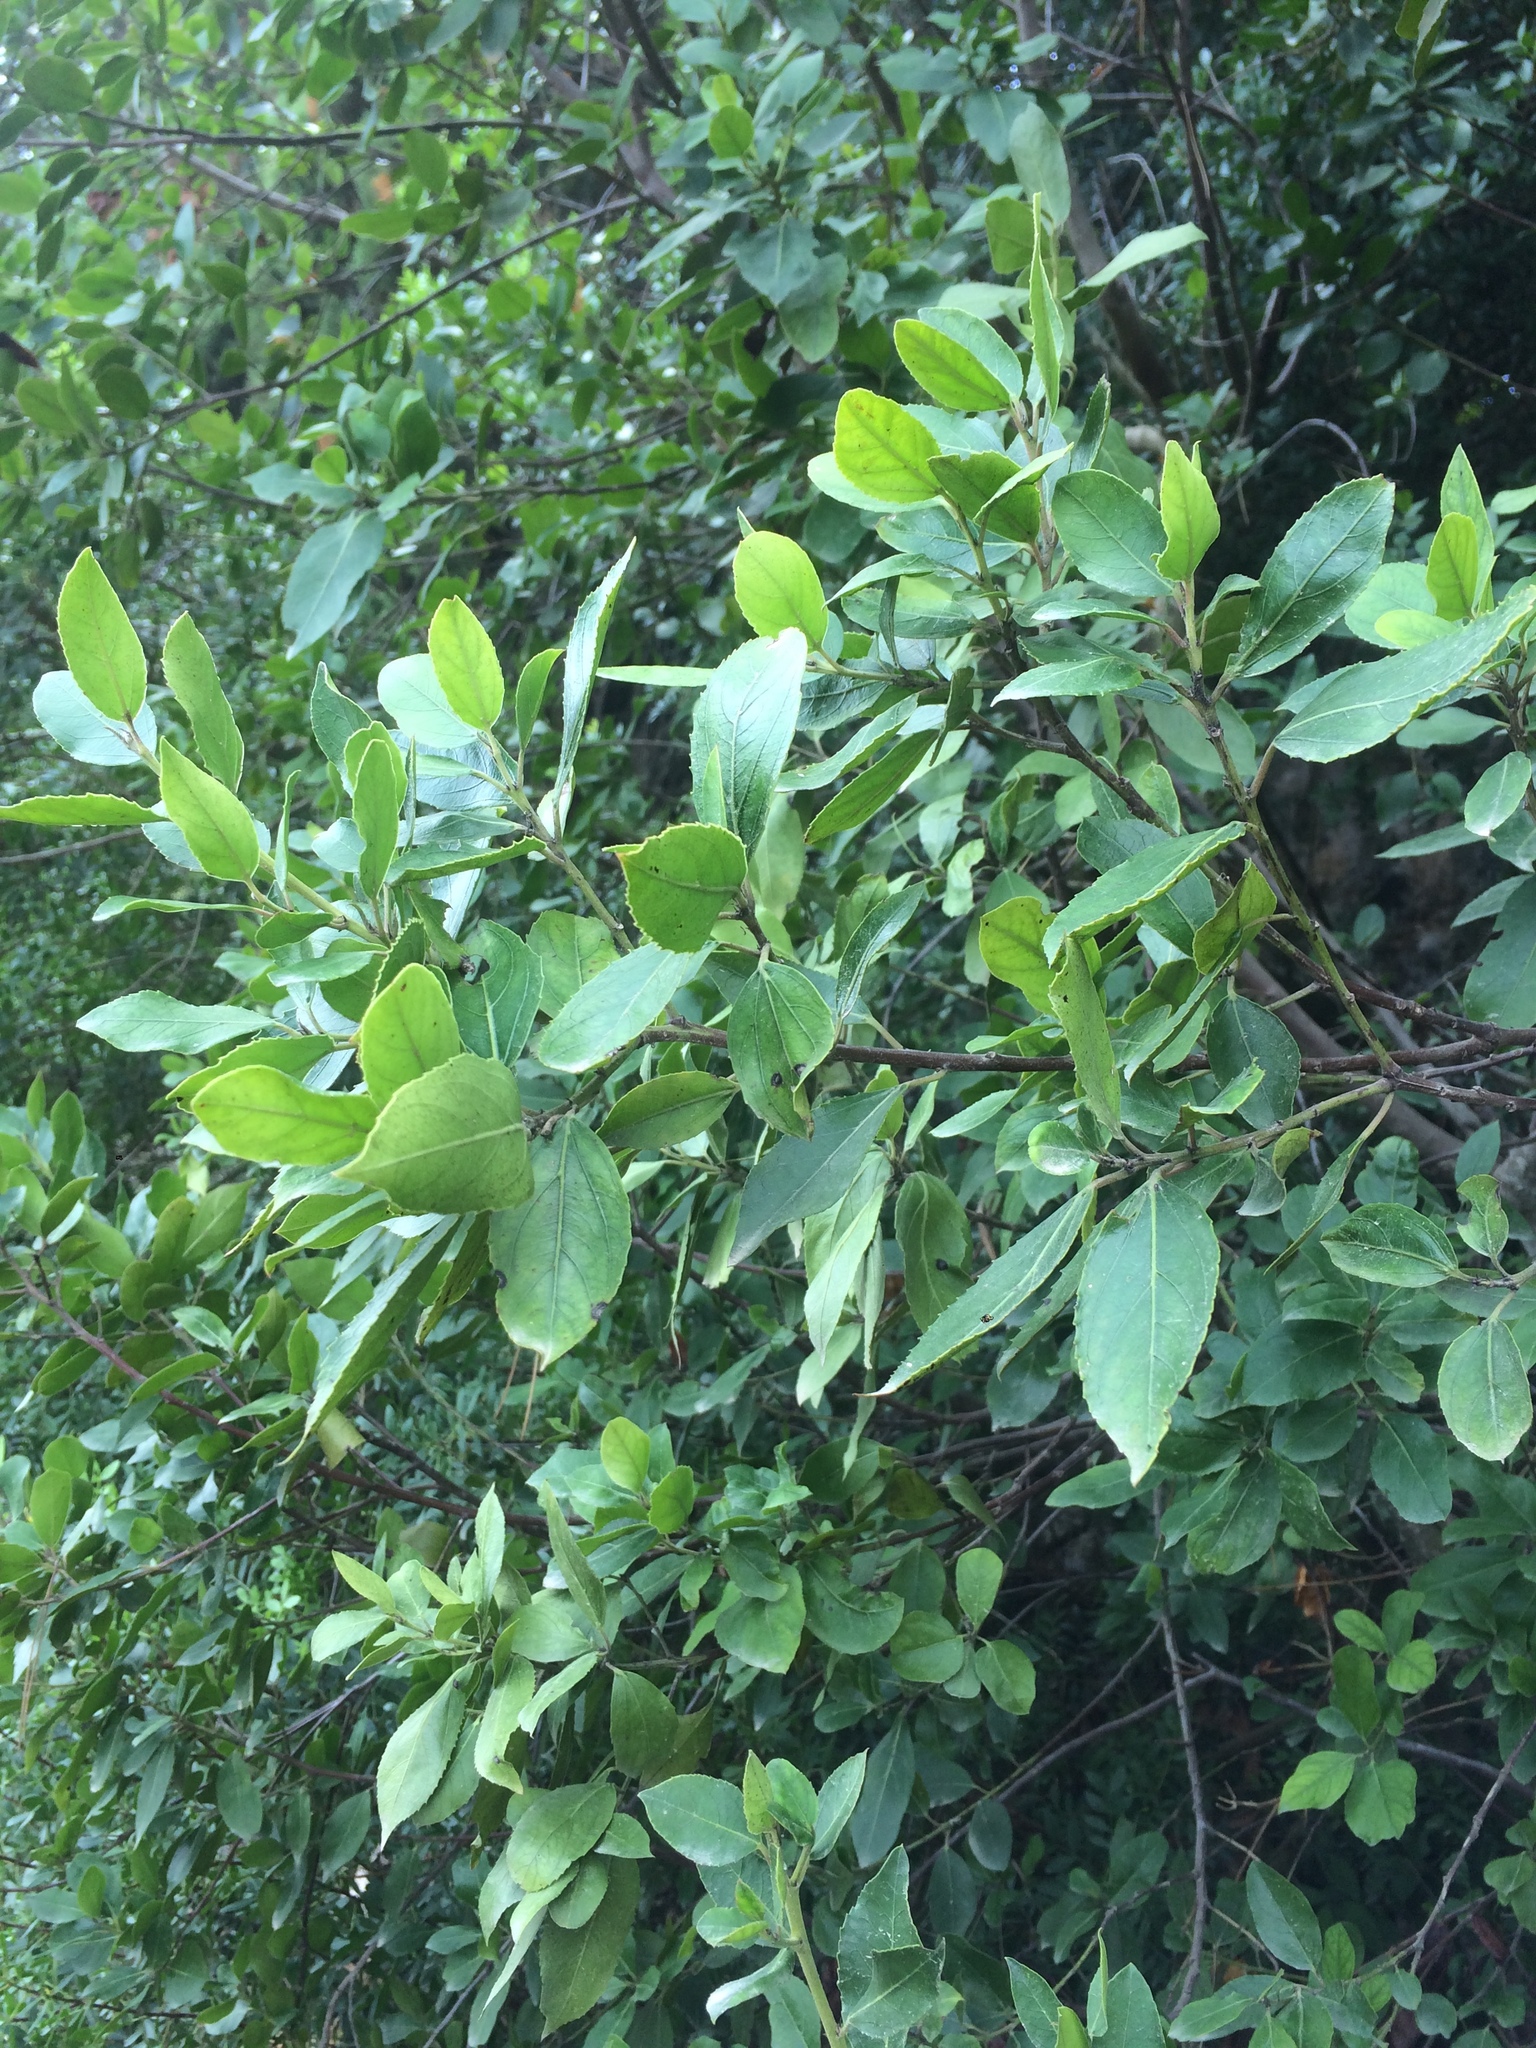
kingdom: Plantae
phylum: Tracheophyta
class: Magnoliopsida
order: Rosales
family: Rhamnaceae
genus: Rhamnus
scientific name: Rhamnus alaternus
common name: Mediterranean buckthorn
